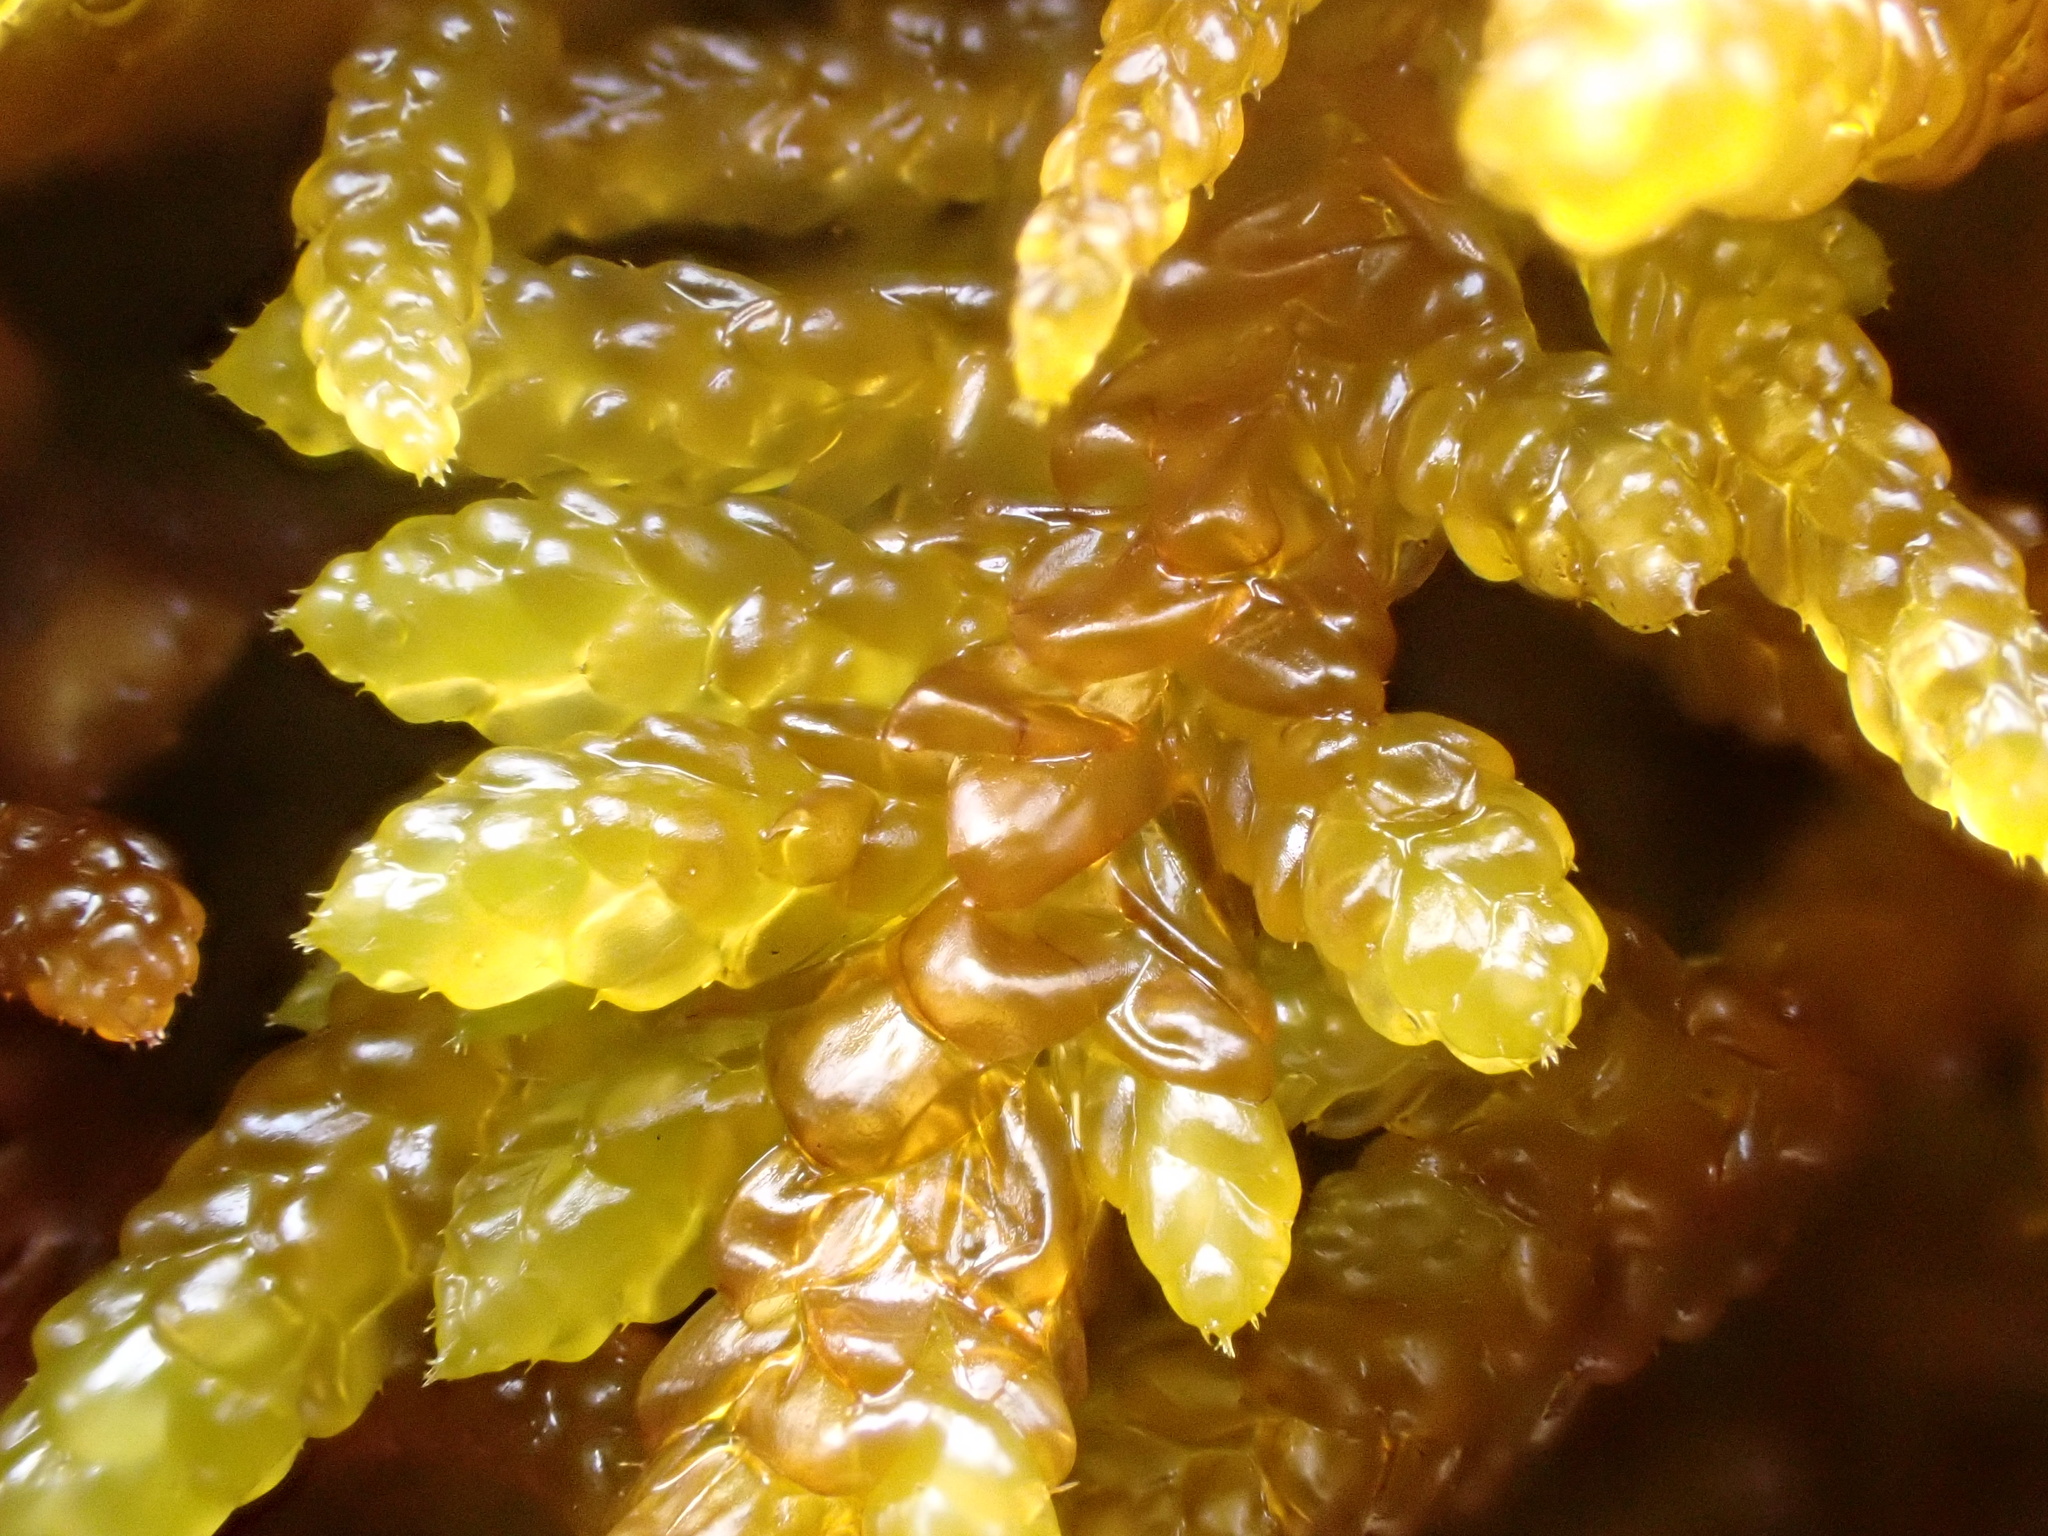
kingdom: Plantae
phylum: Bryophyta
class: Bryopsida
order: Hypnales
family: Brachytheciaceae
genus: Pseudoscleropodium
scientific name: Pseudoscleropodium purum
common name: Neat feather-moss
